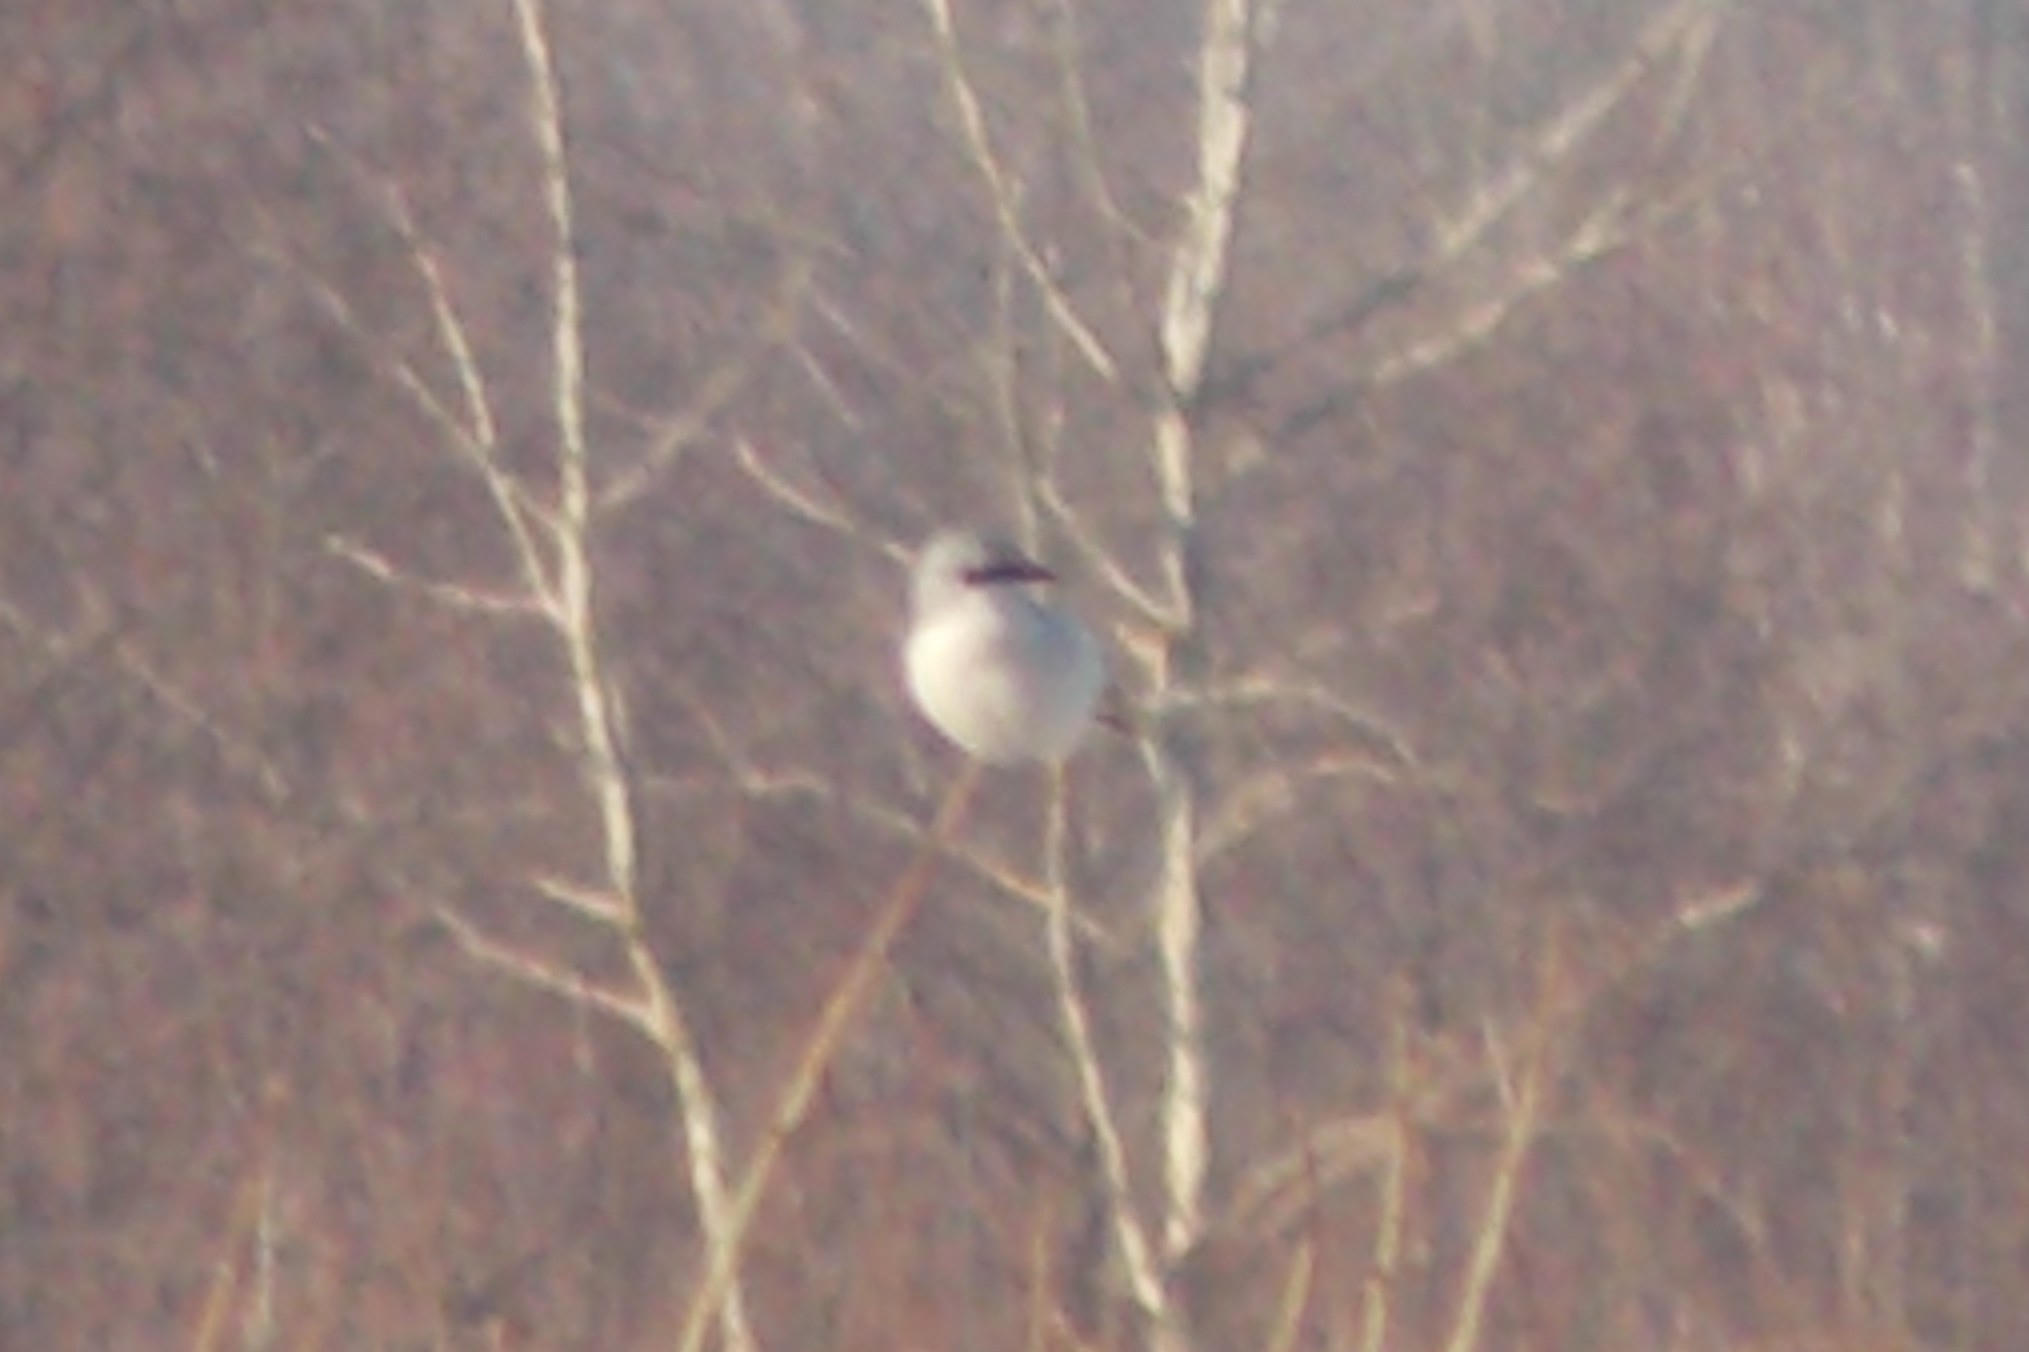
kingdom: Animalia
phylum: Chordata
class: Aves
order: Passeriformes
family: Laniidae
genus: Lanius
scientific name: Lanius excubitor
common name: Great grey shrike
